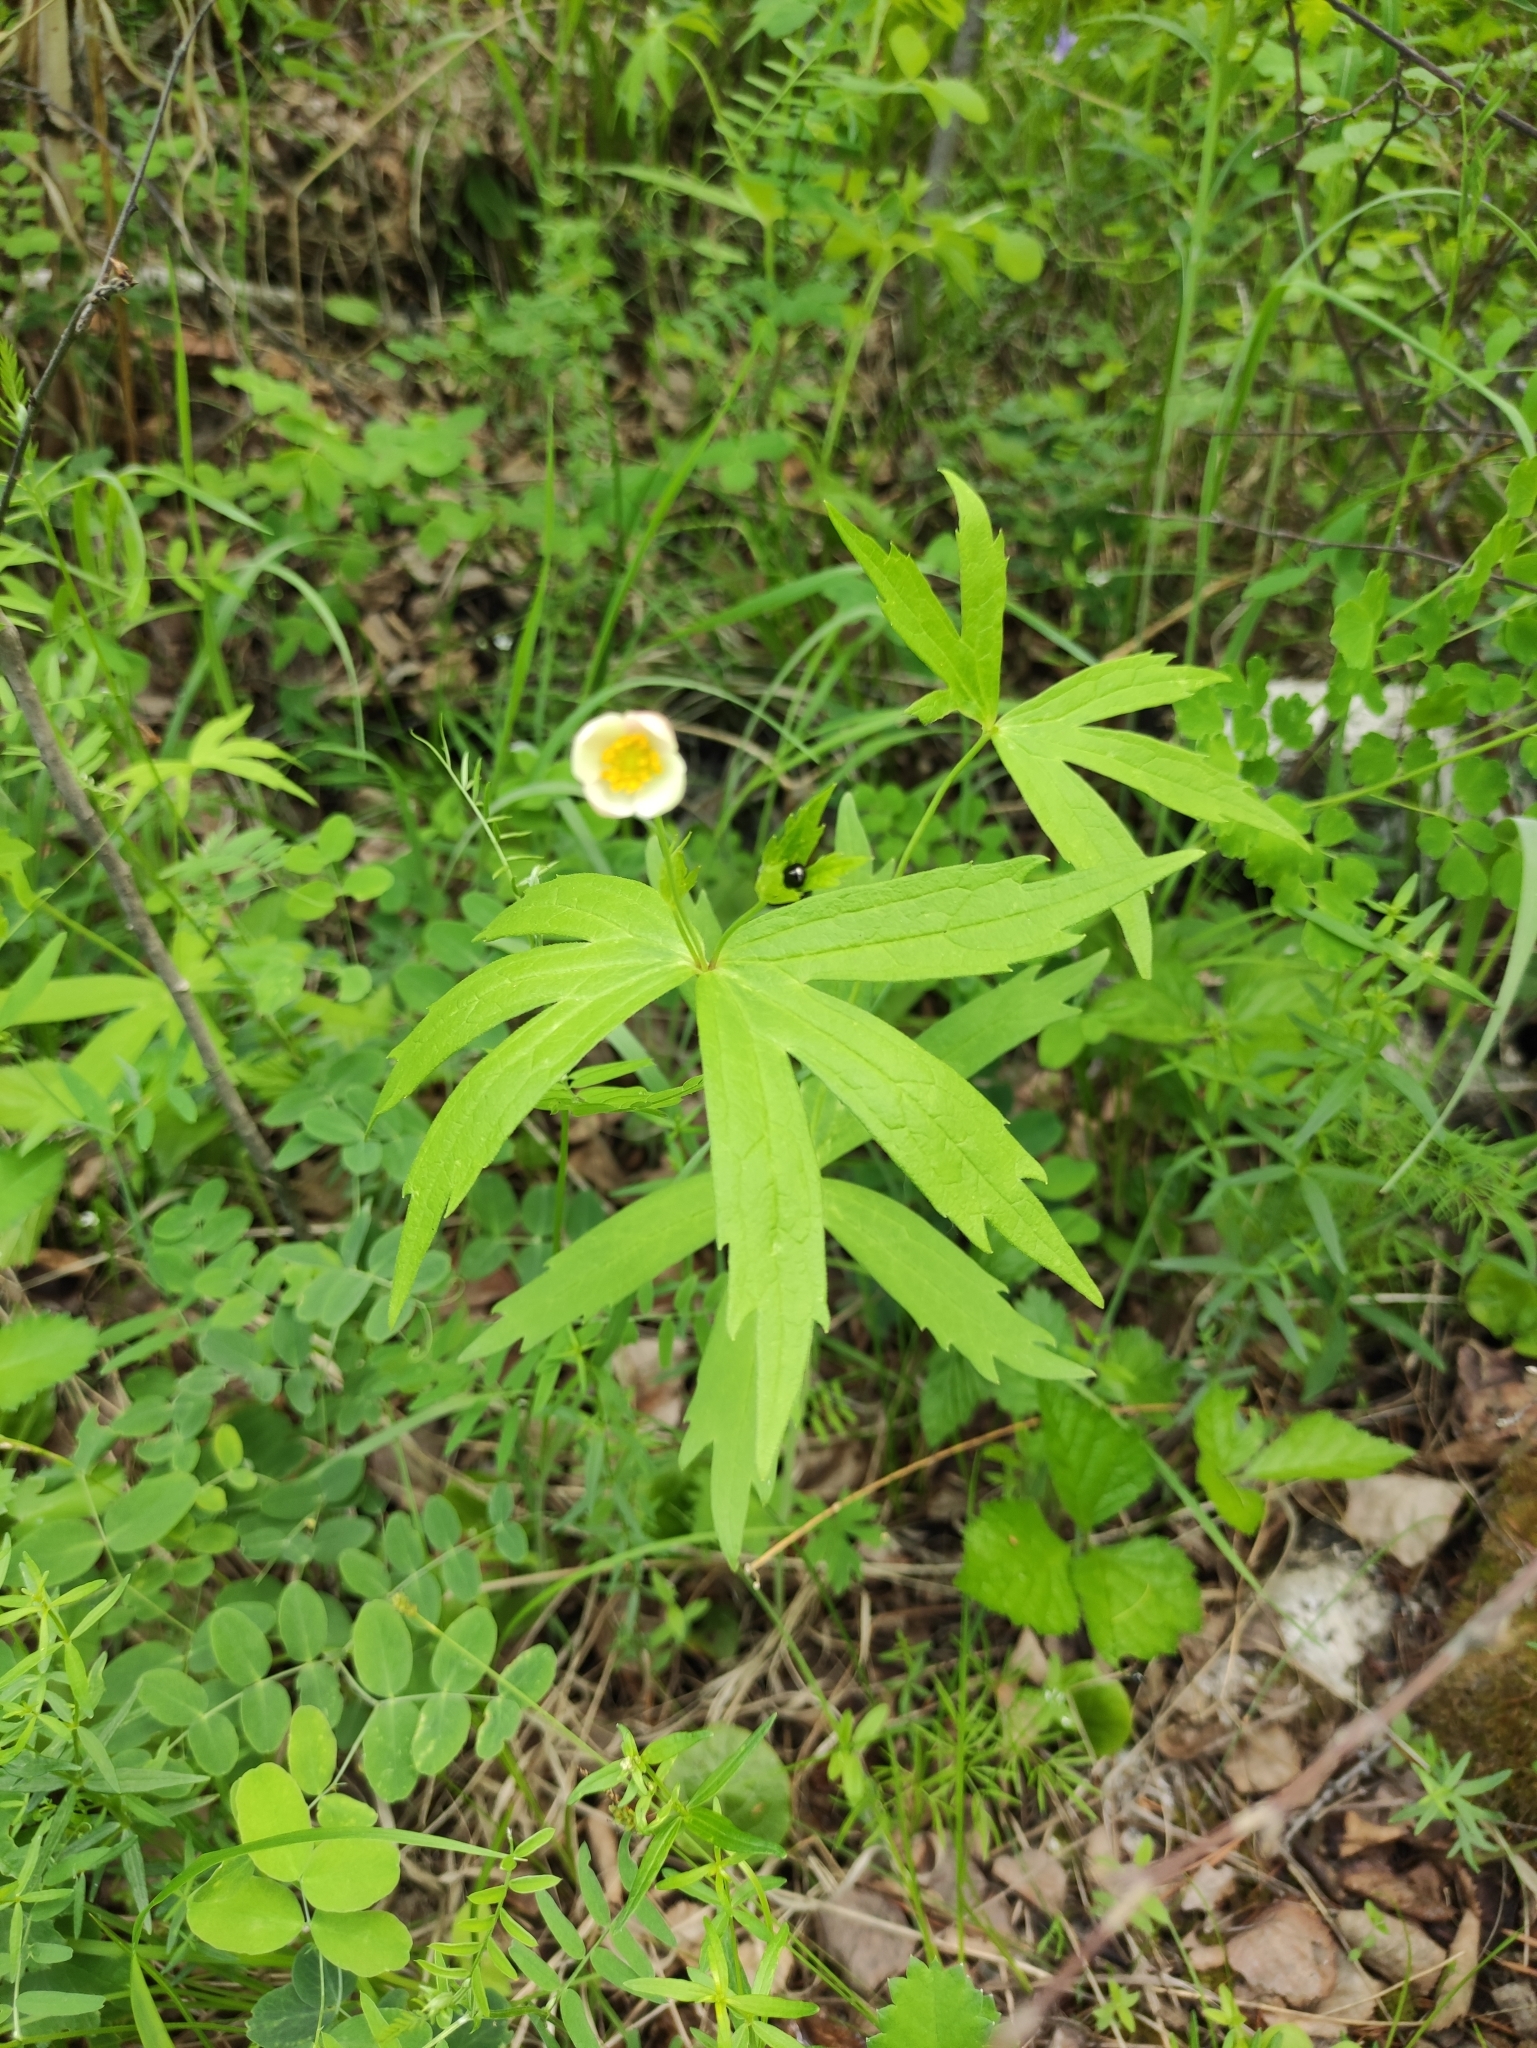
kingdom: Plantae
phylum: Tracheophyta
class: Magnoliopsida
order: Ranunculales
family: Ranunculaceae
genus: Anemonastrum
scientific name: Anemonastrum dichotomum
